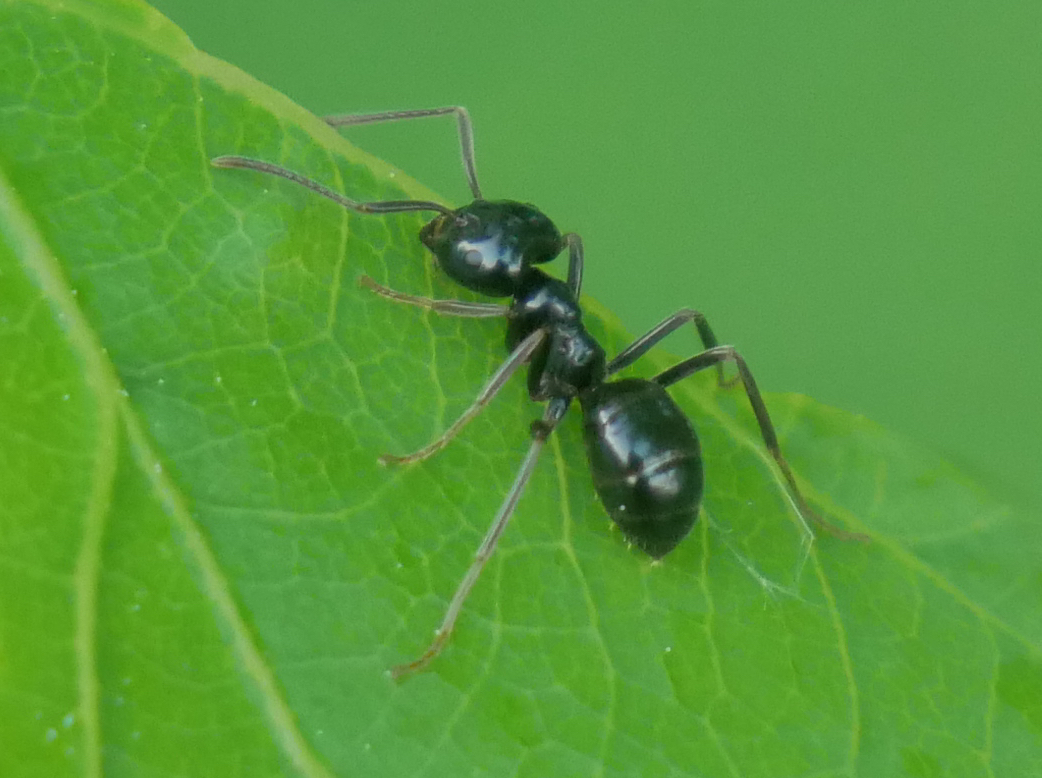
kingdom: Animalia
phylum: Arthropoda
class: Insecta
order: Hymenoptera
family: Formicidae
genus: Lasius
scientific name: Lasius fuliginosus
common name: Jet ant
